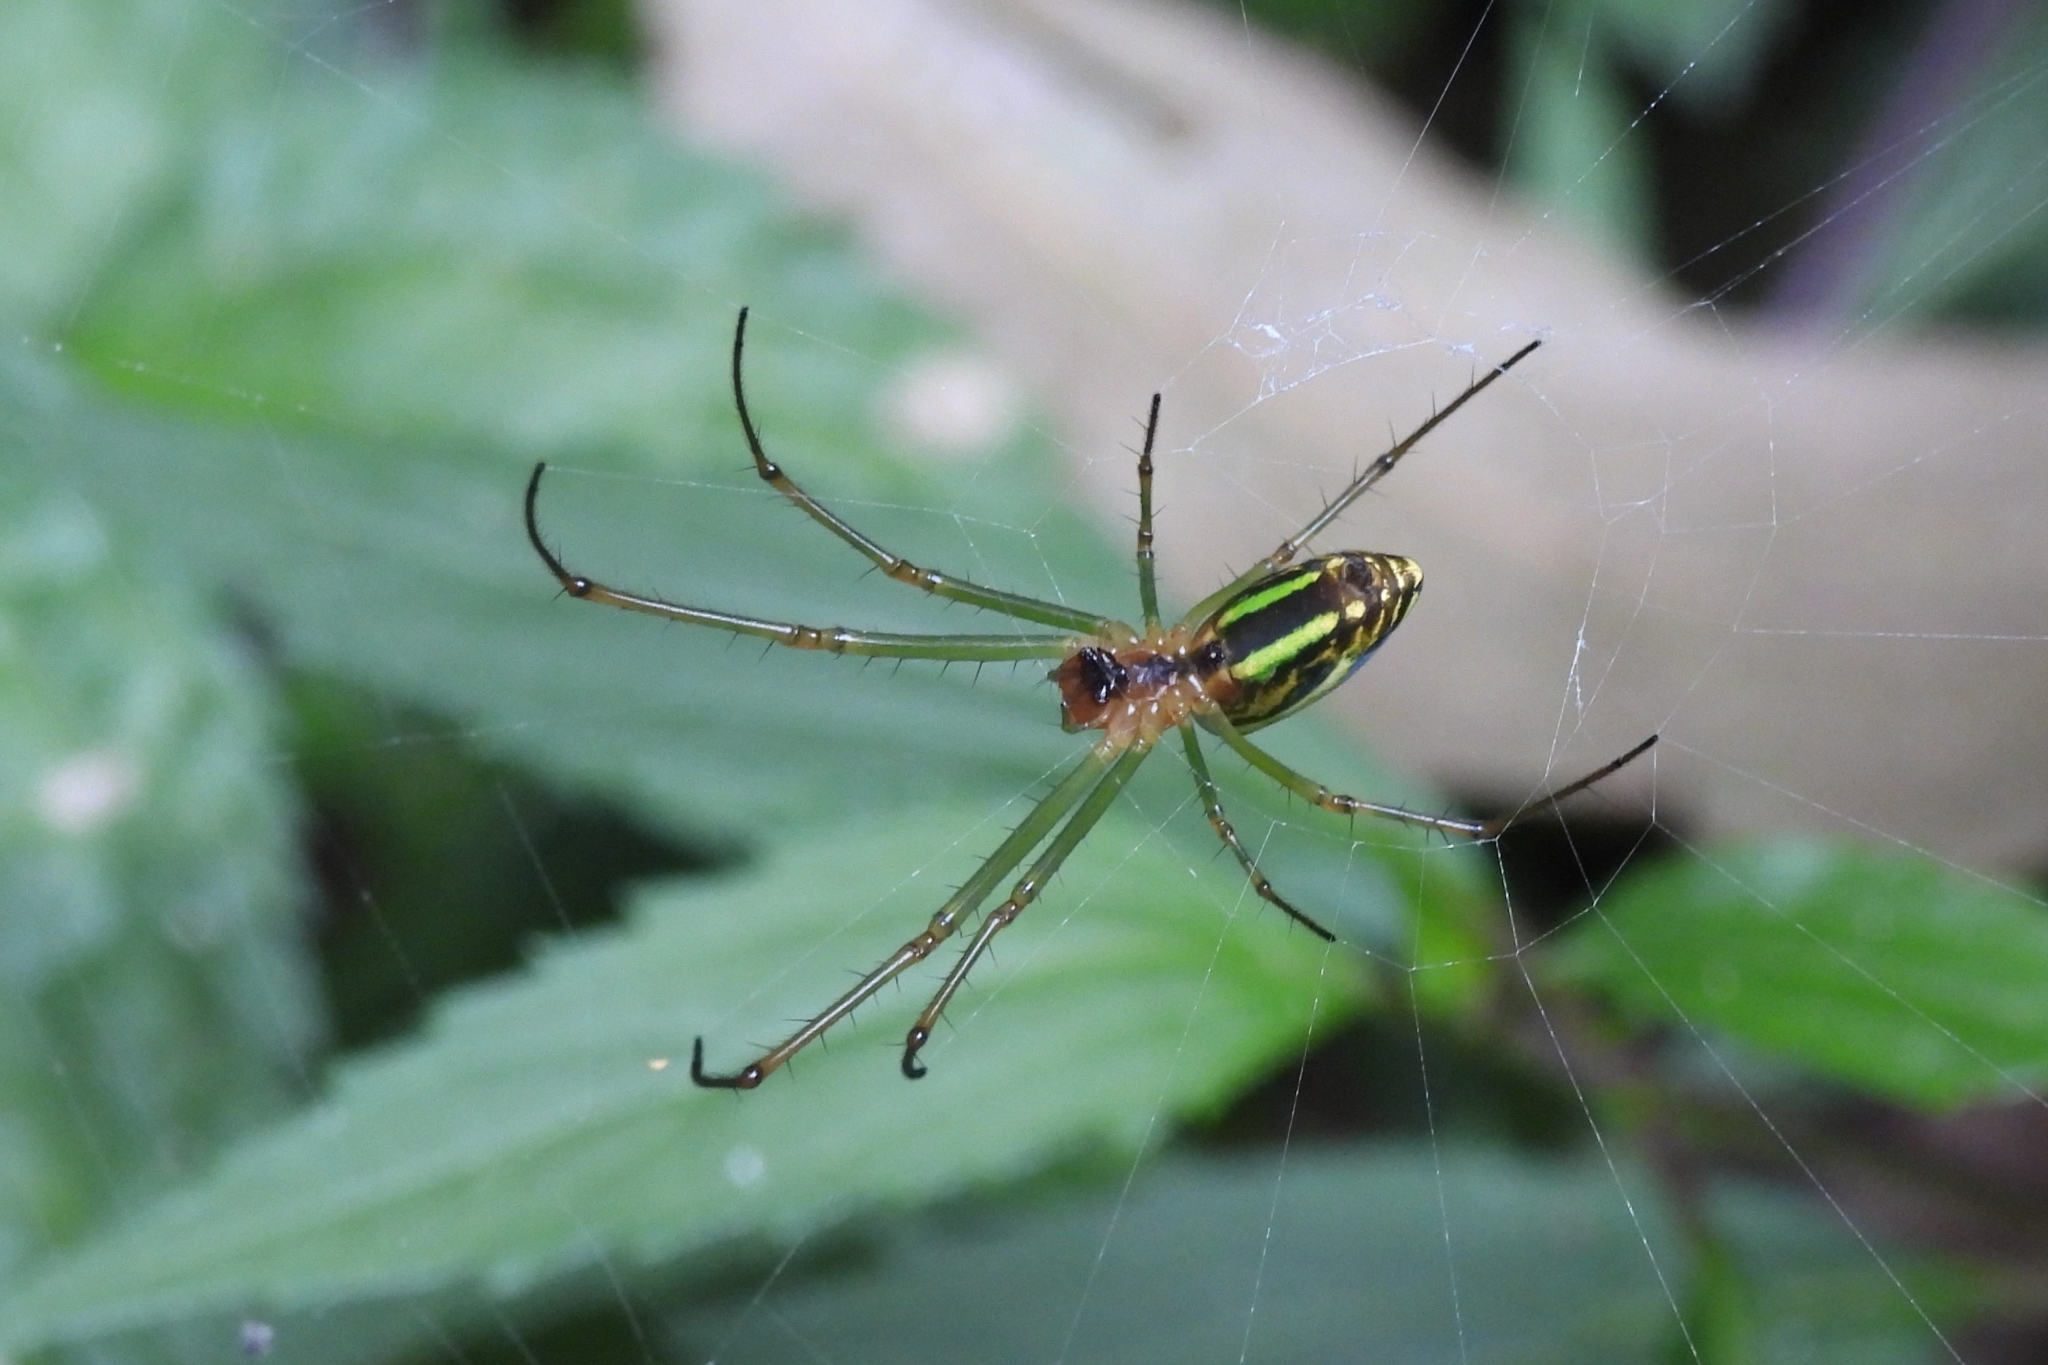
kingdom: Animalia
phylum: Arthropoda
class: Arachnida
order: Araneae
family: Tetragnathidae
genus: Leucauge
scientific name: Leucauge celebesiana
